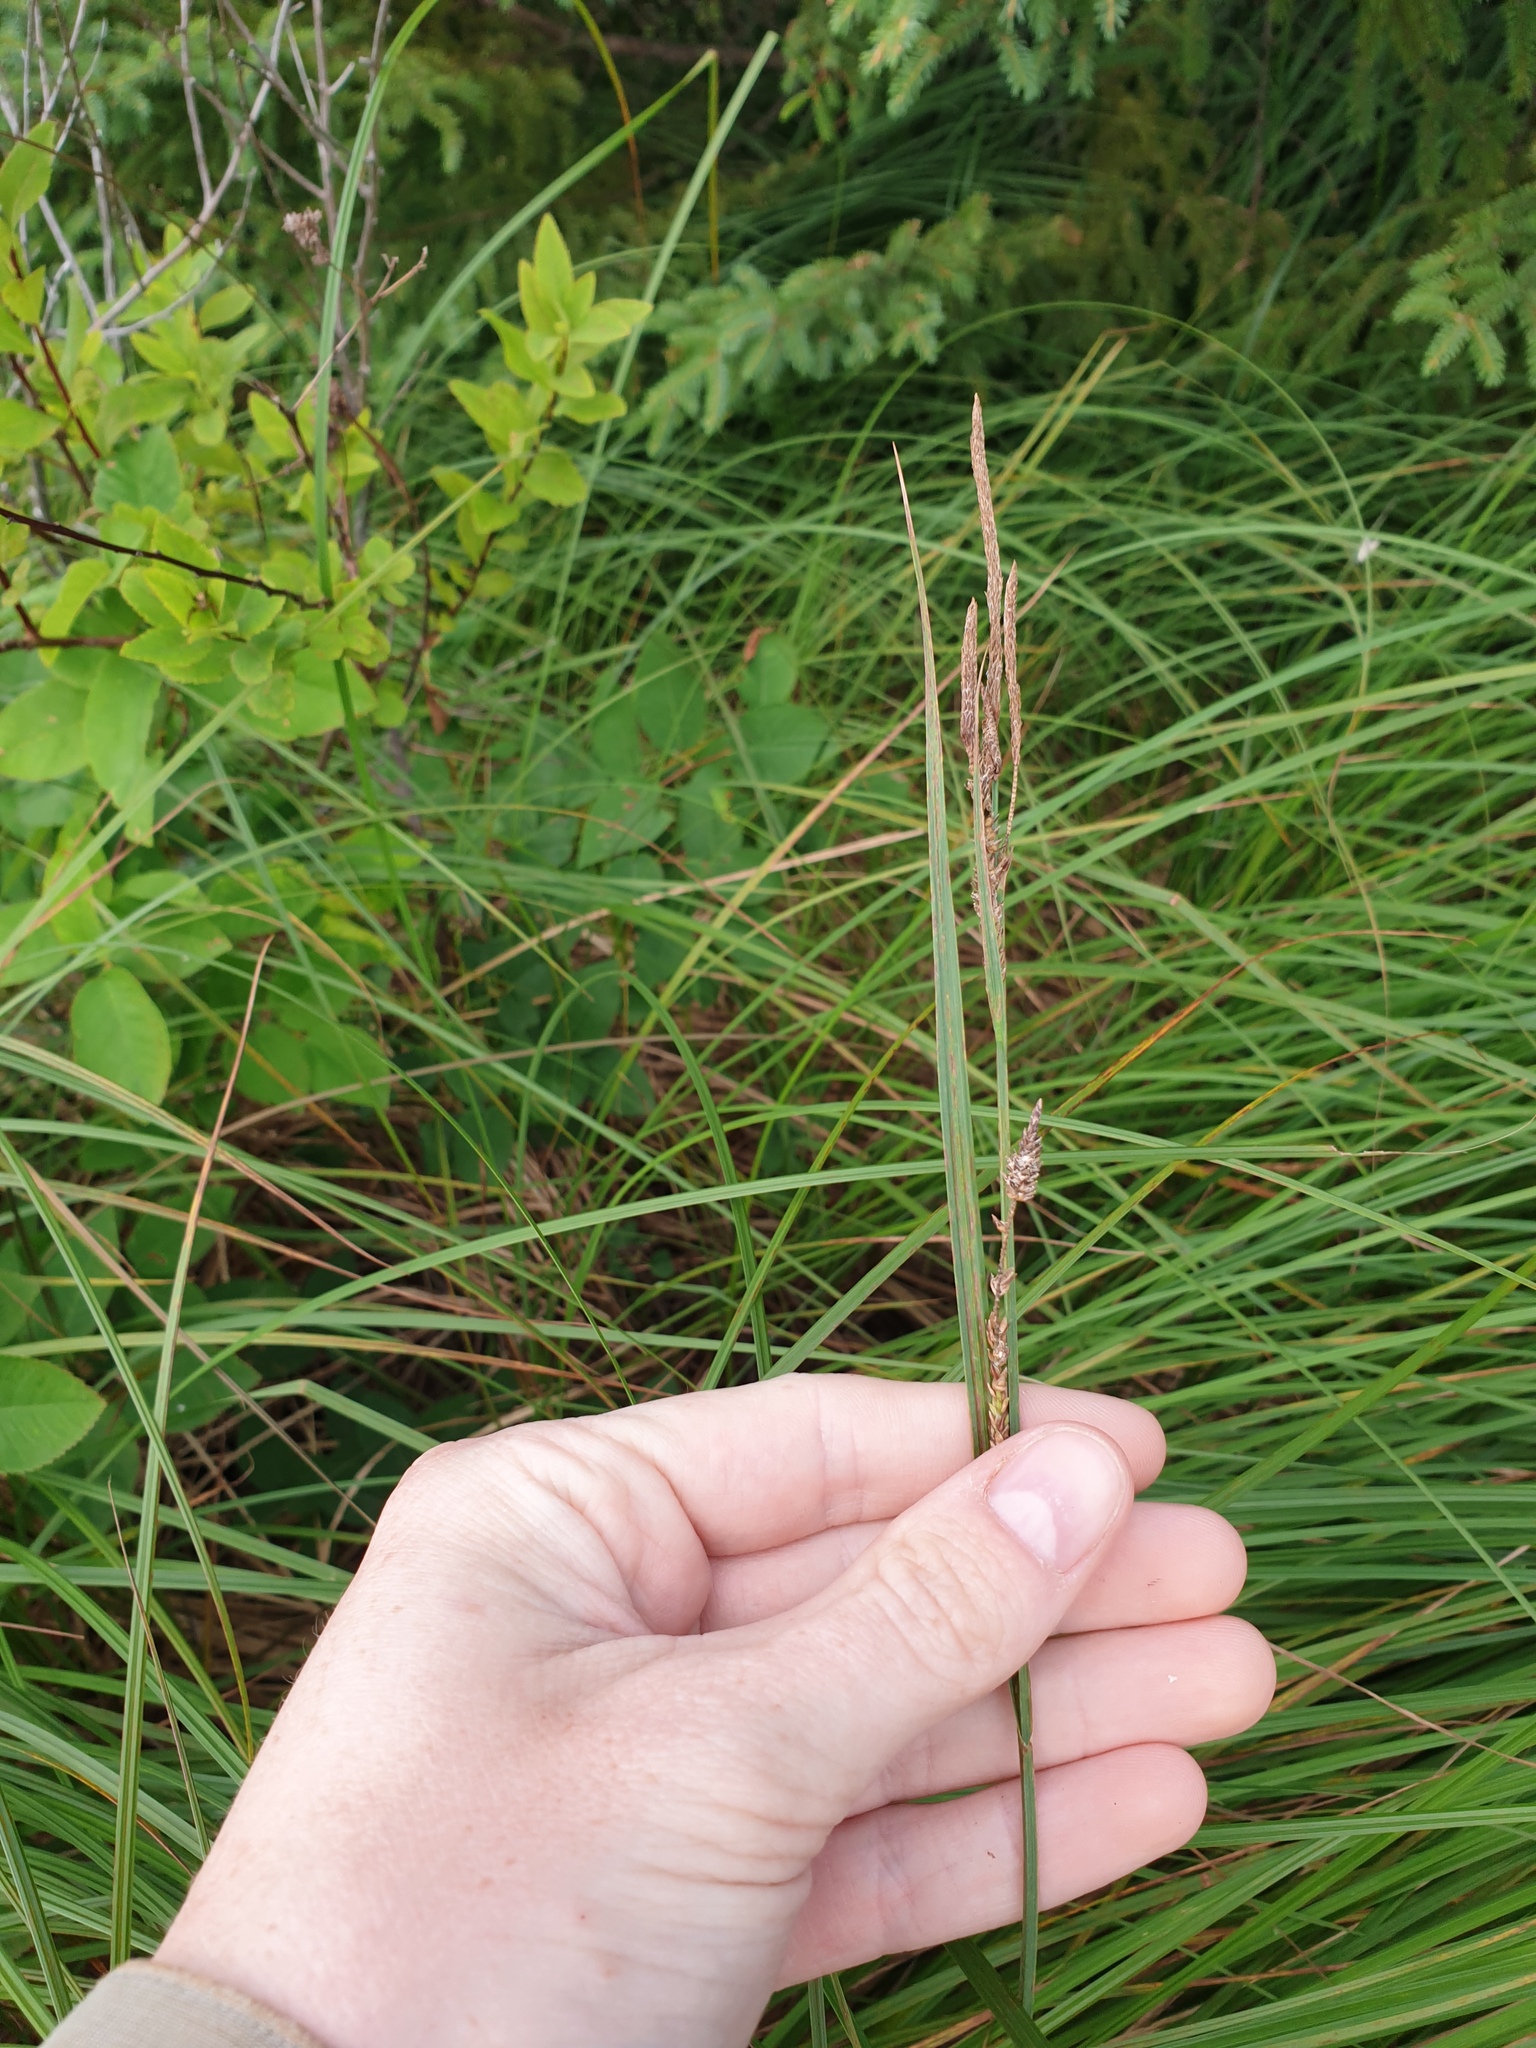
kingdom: Plantae
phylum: Tracheophyta
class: Liliopsida
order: Poales
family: Cyperaceae
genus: Carex
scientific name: Carex stricta
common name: Hummock sedge
